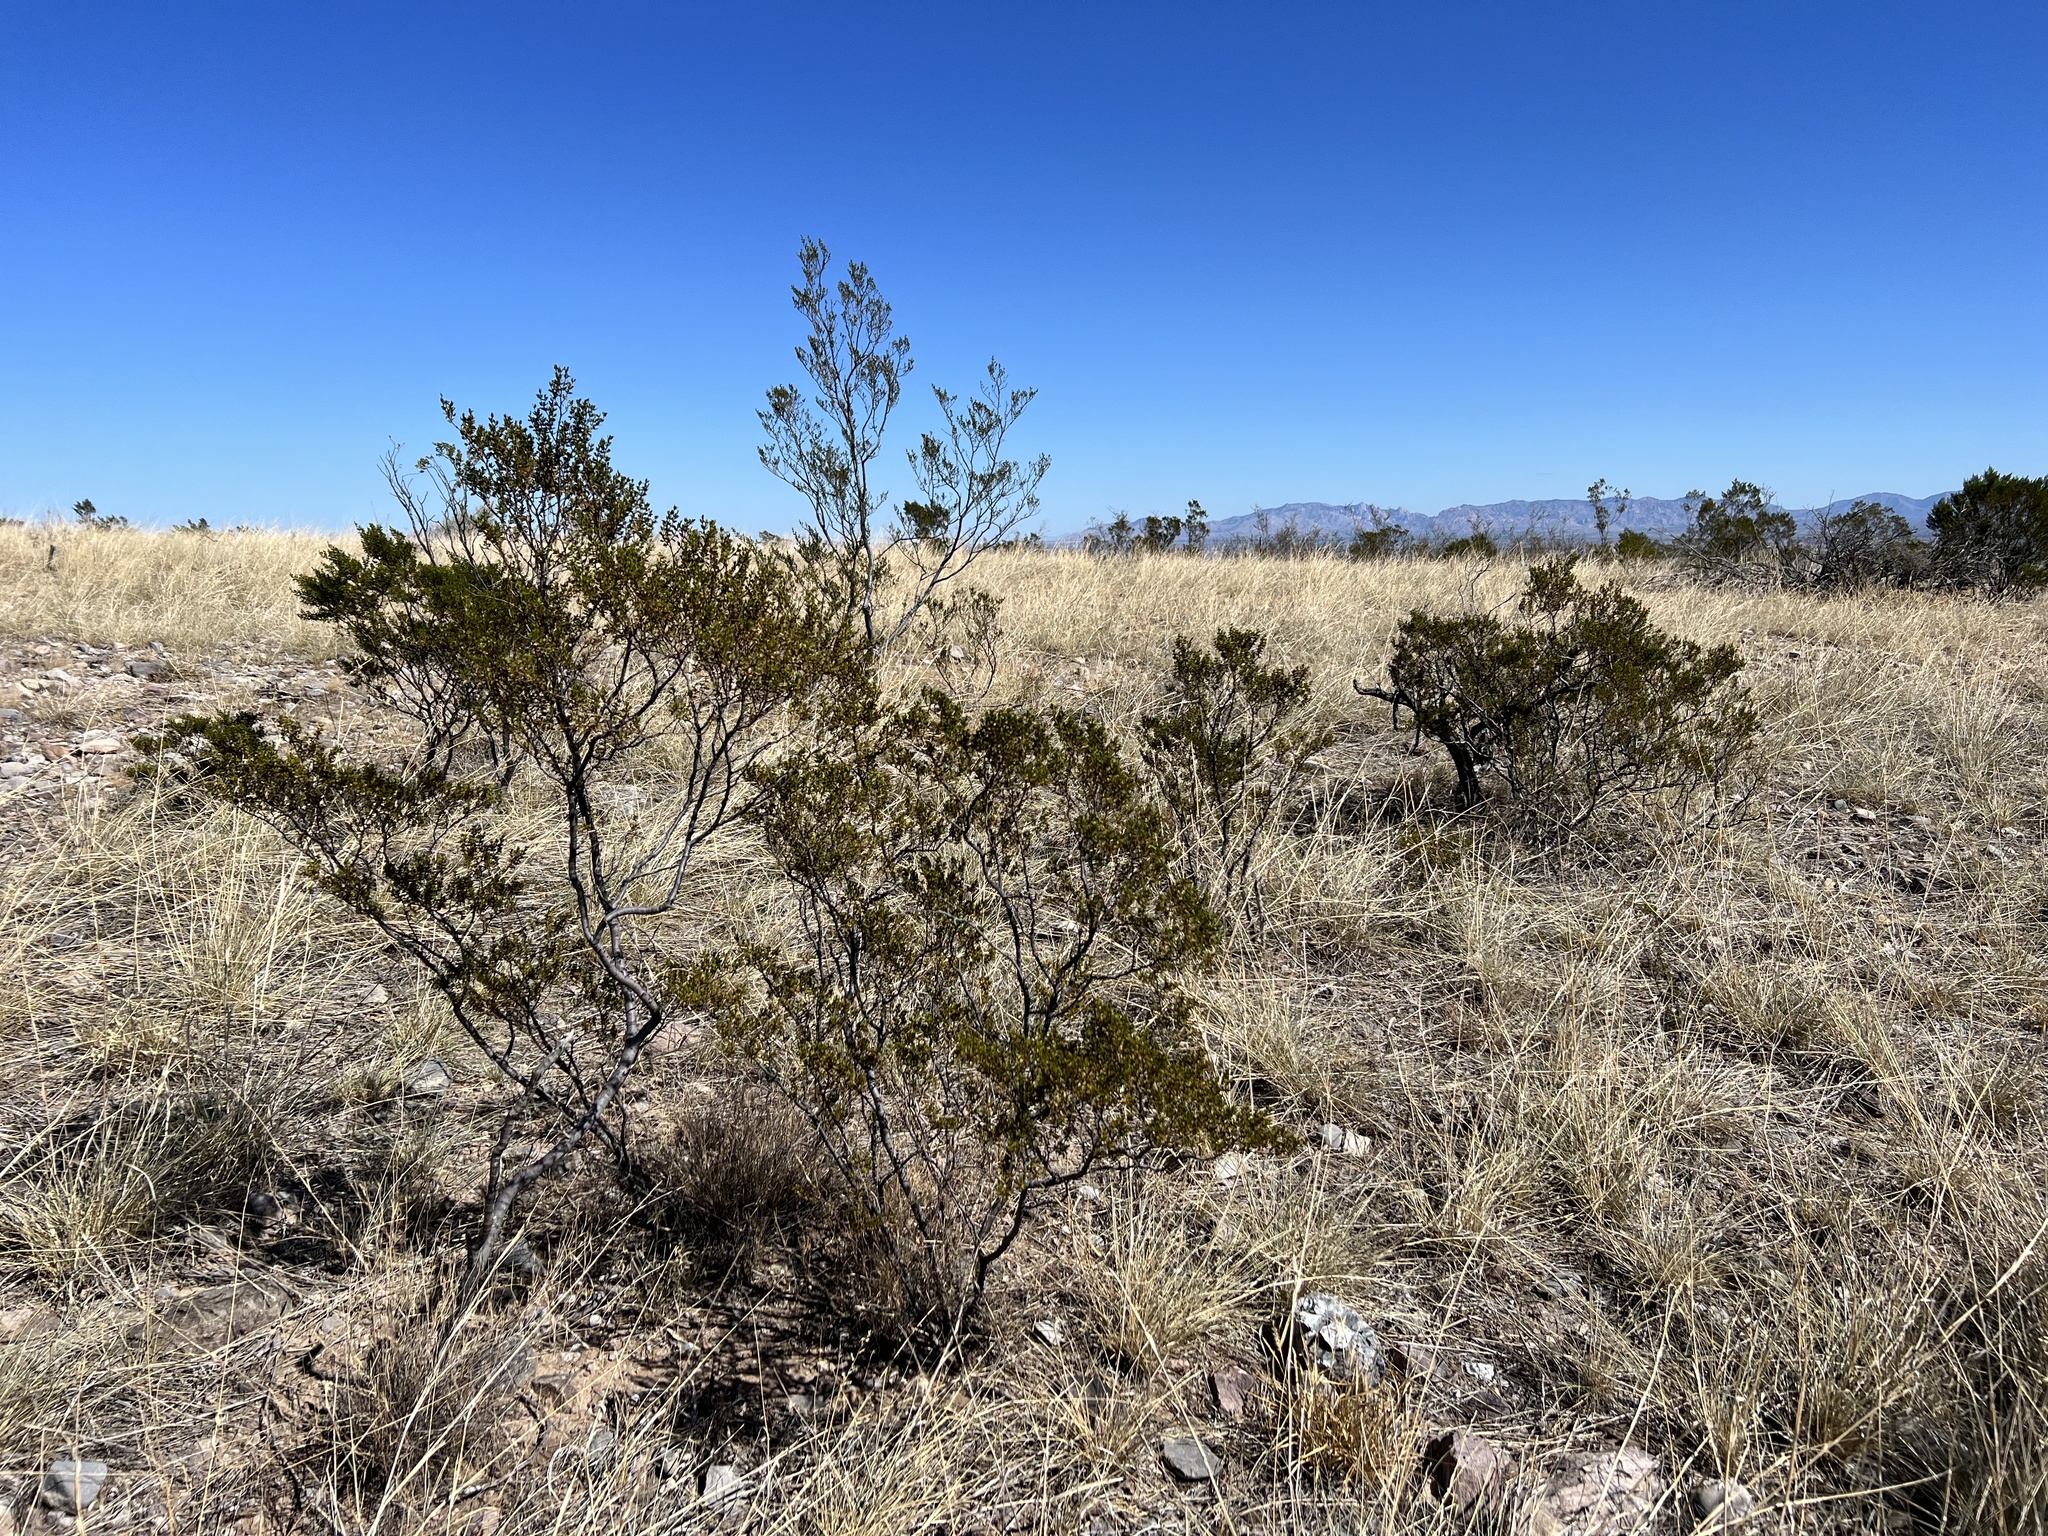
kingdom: Plantae
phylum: Tracheophyta
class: Magnoliopsida
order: Zygophyllales
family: Zygophyllaceae
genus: Larrea
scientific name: Larrea tridentata
